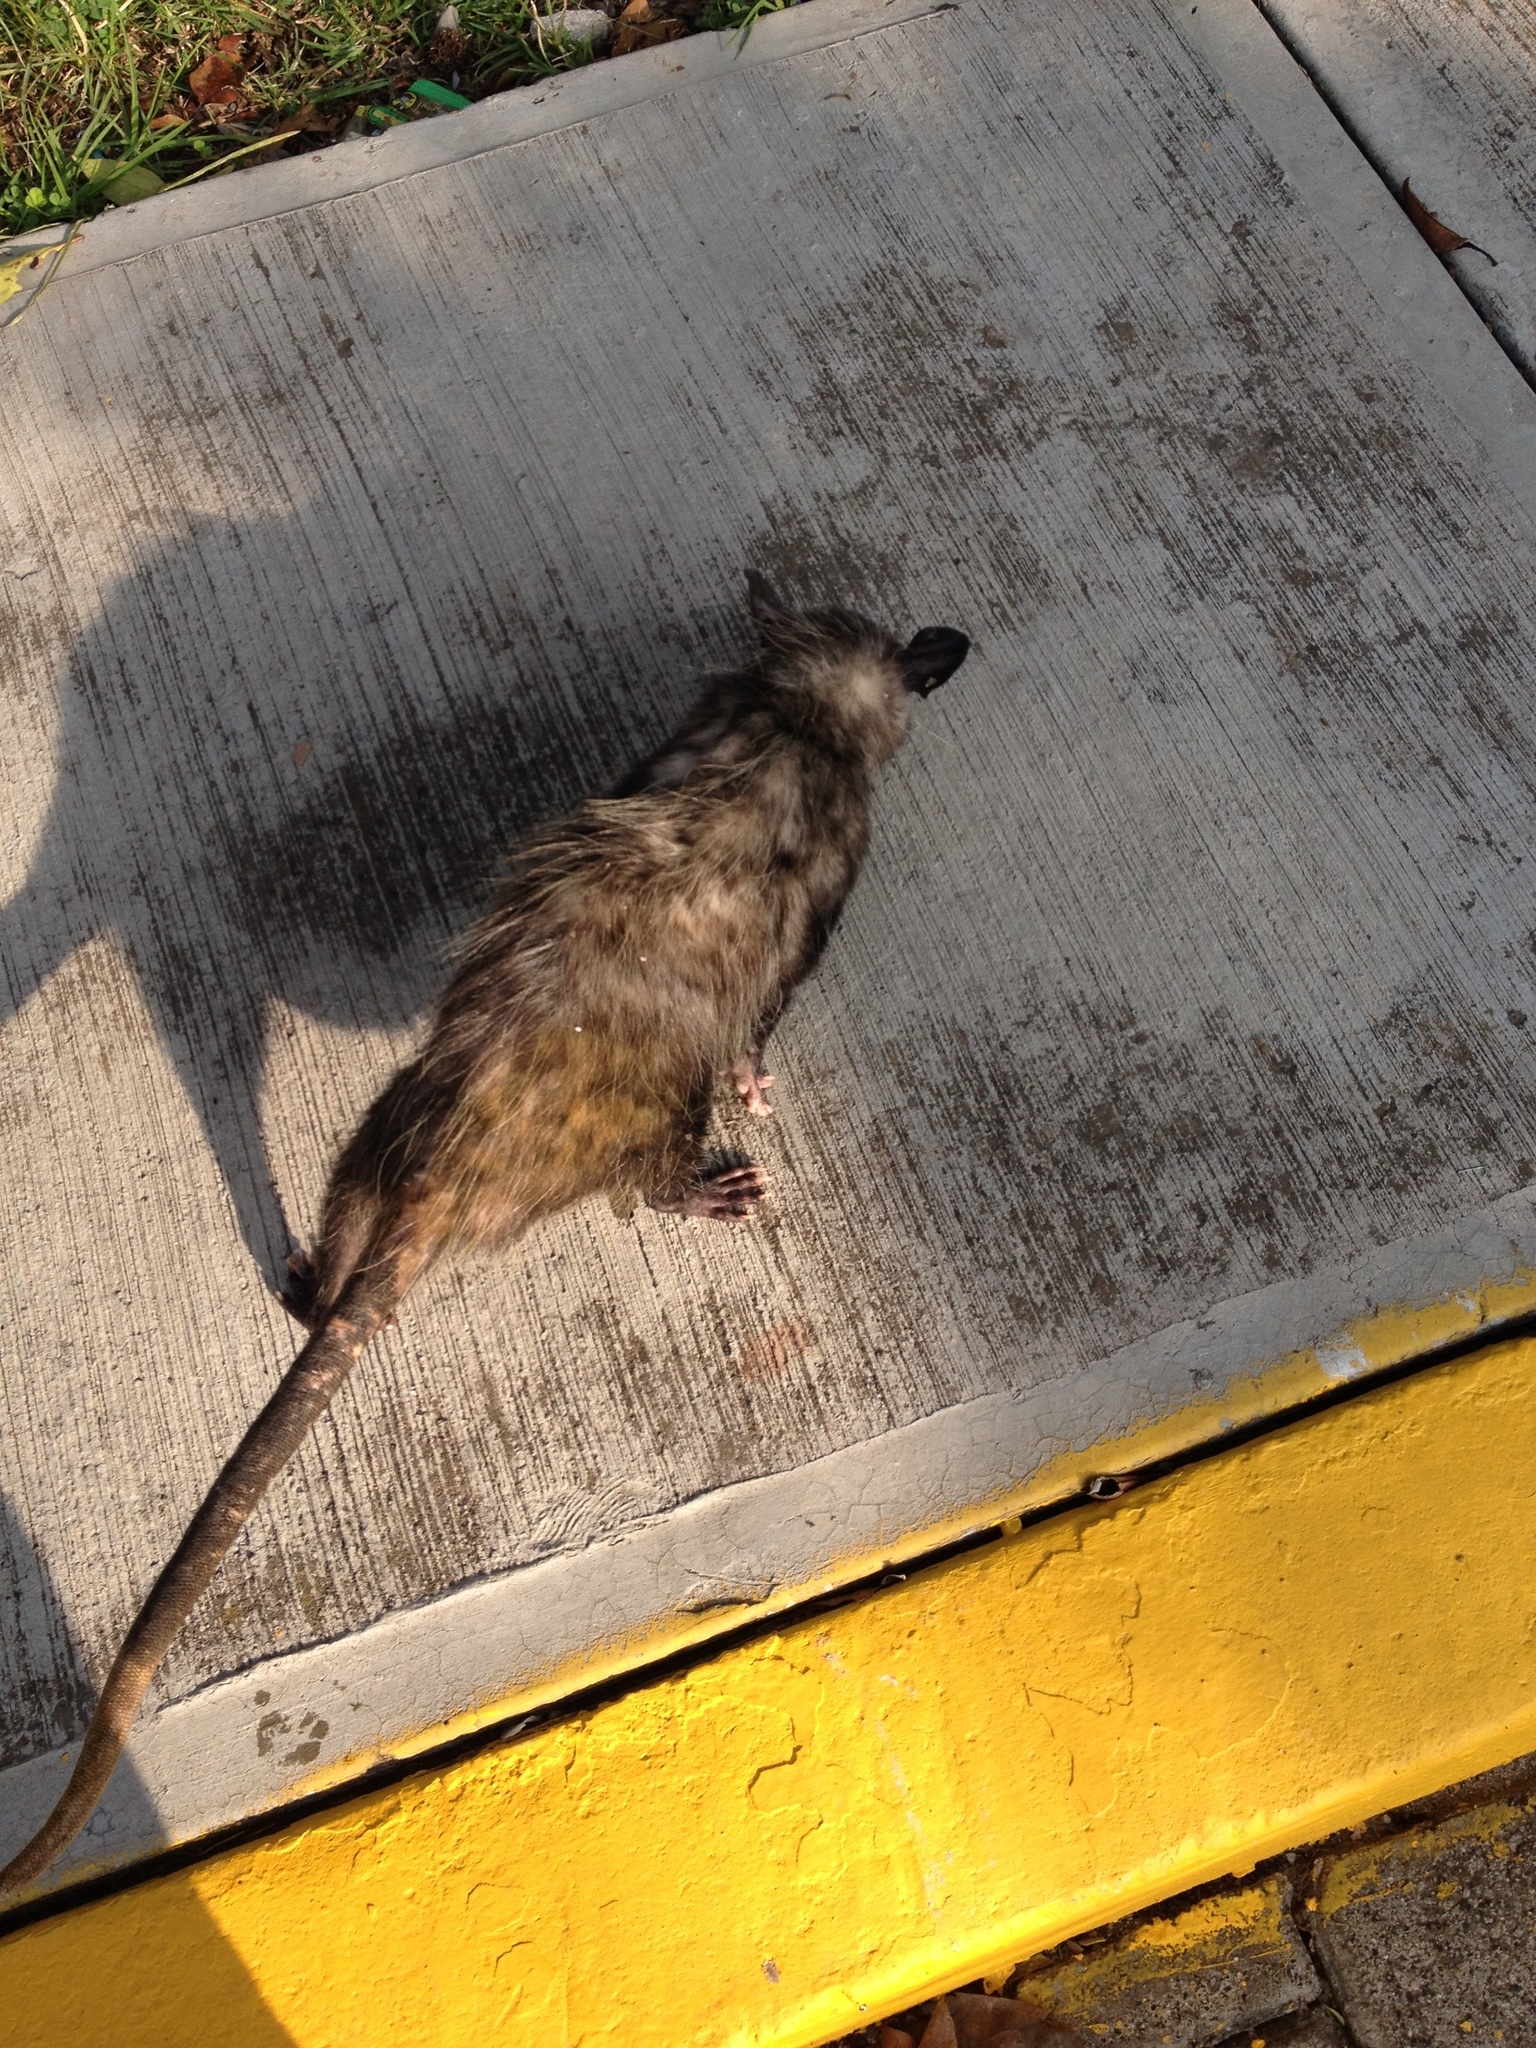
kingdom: Animalia
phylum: Chordata
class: Mammalia
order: Didelphimorphia
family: Didelphidae
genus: Didelphis
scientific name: Didelphis virginiana
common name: Virginia opossum
